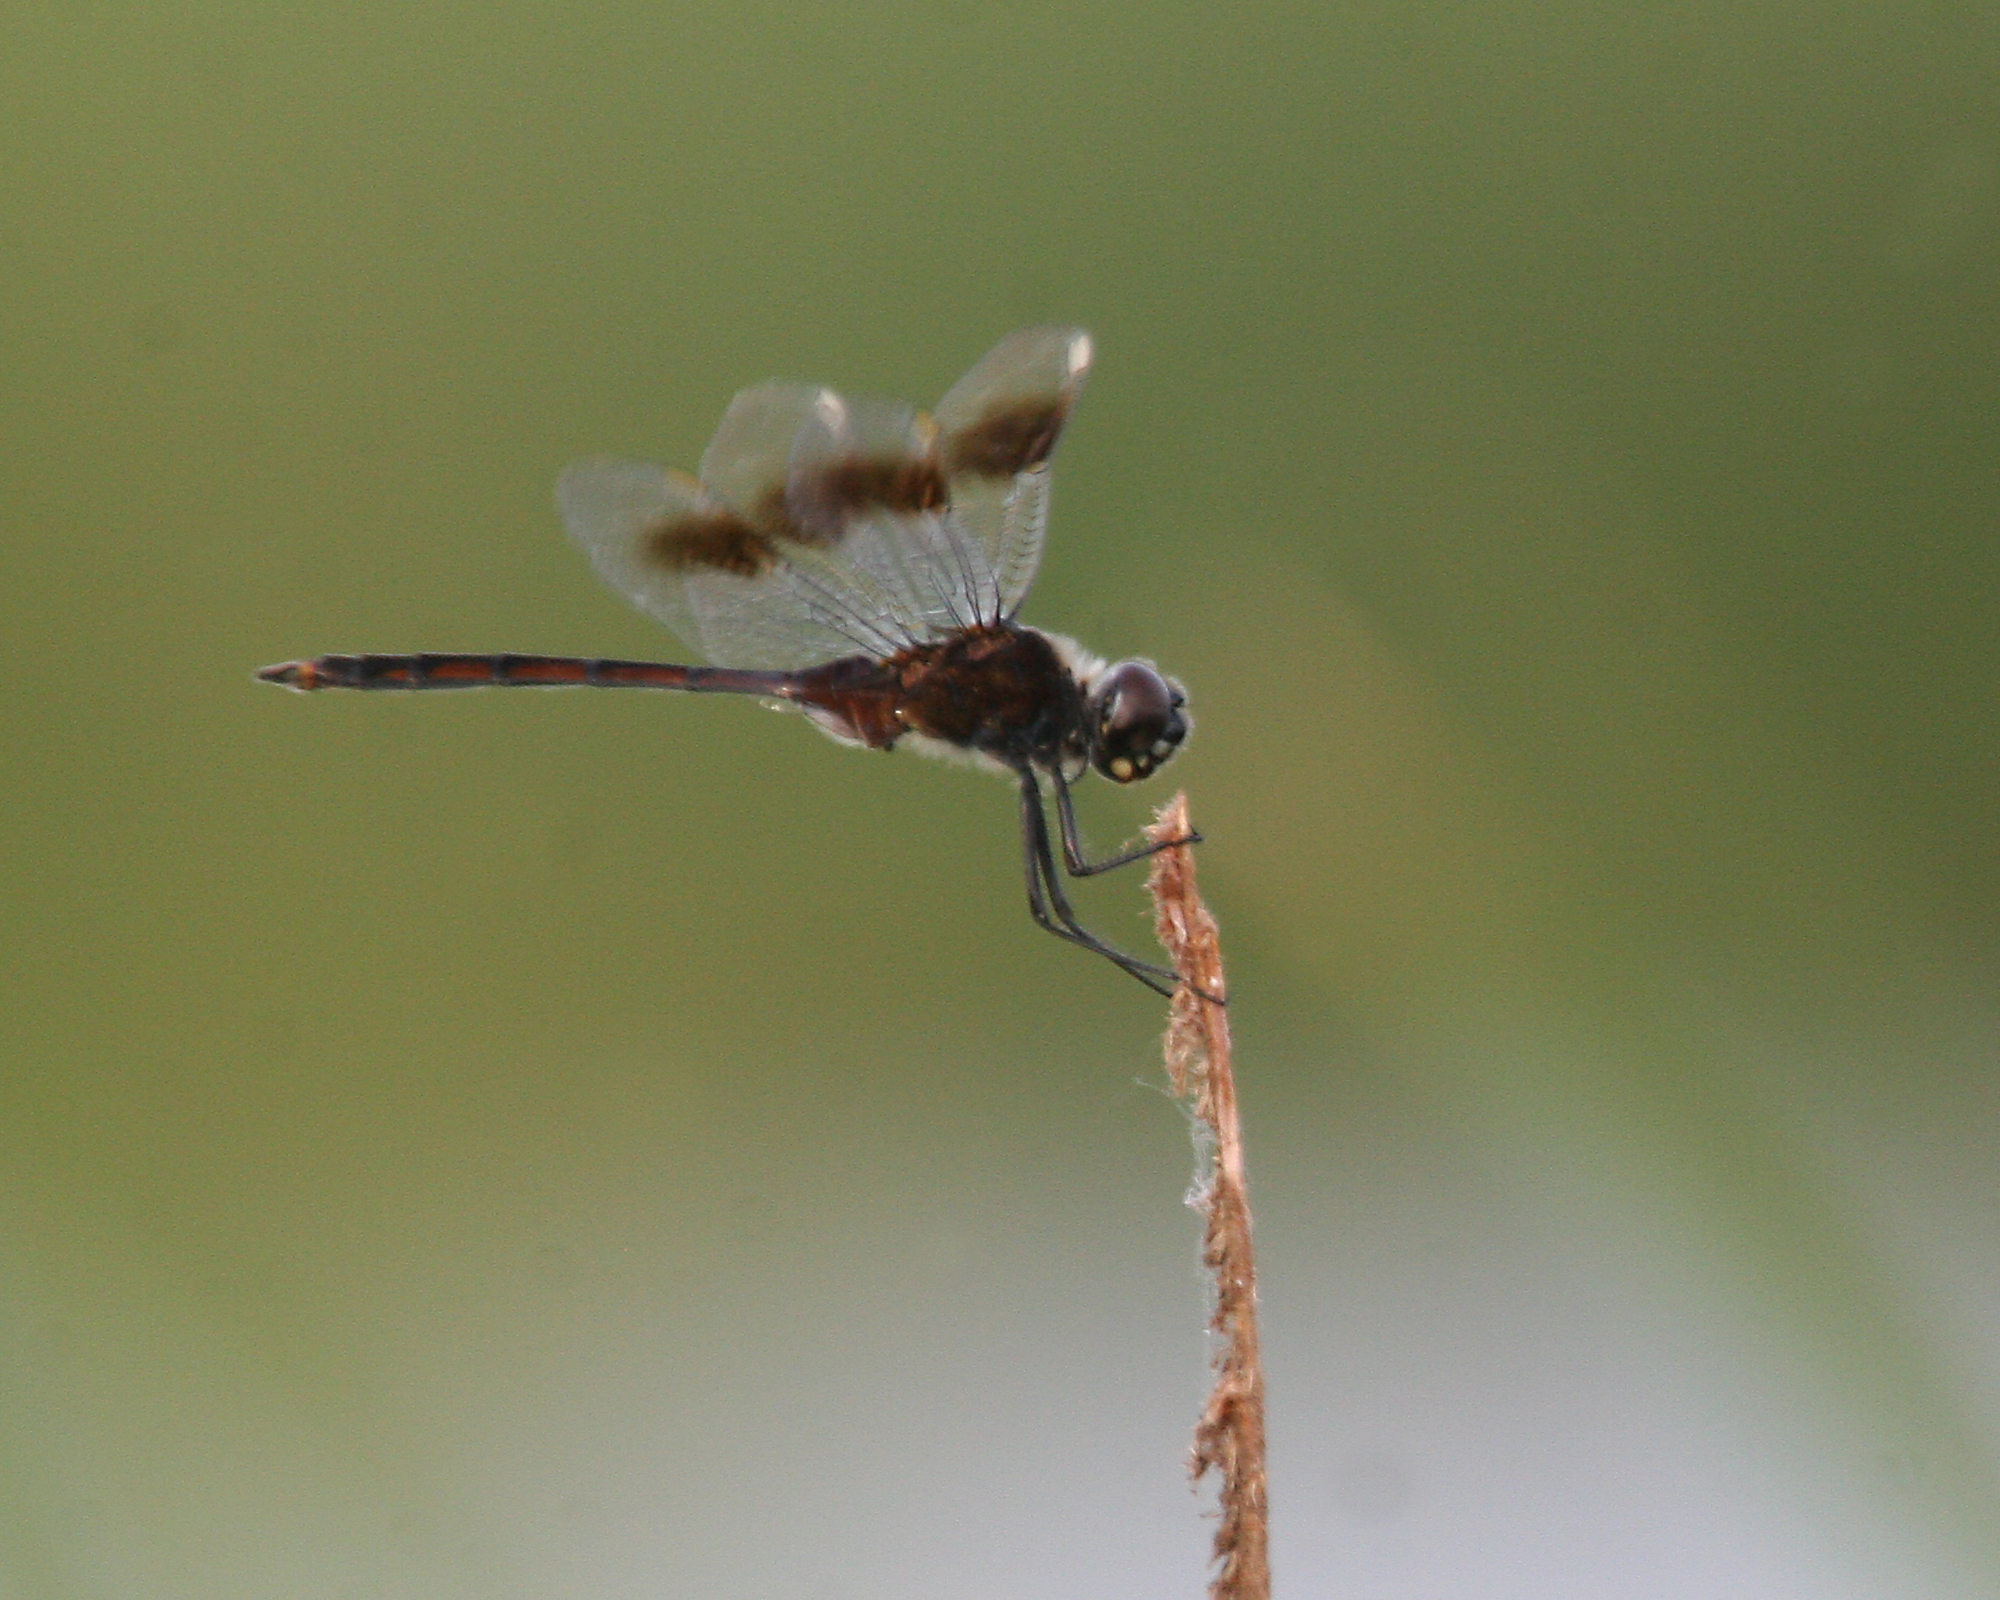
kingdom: Animalia
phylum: Arthropoda
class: Insecta
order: Odonata
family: Libellulidae
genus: Brachymesia
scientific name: Brachymesia gravida
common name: Four-spotted pennant
